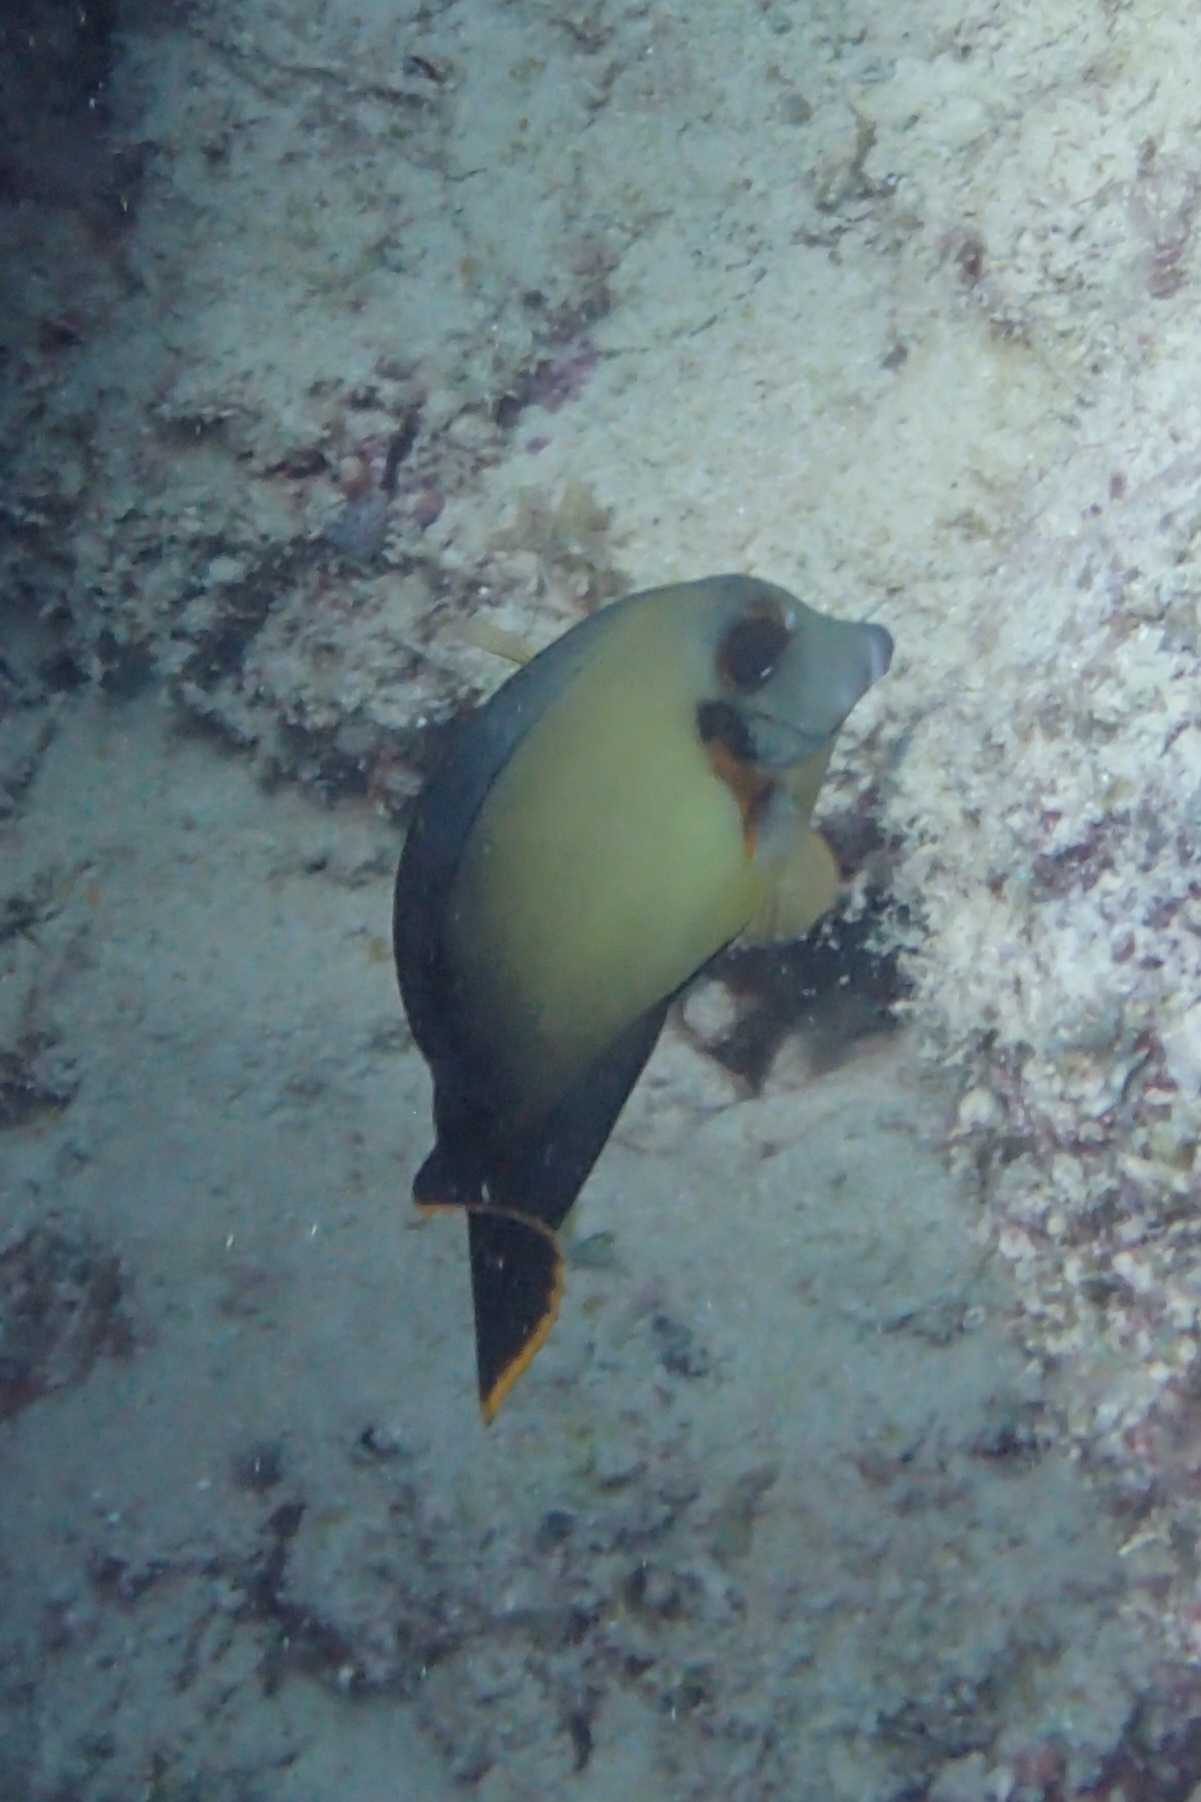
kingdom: Animalia
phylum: Chordata
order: Perciformes
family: Acanthuridae
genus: Acanthurus
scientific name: Acanthurus pyroferus
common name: Chocolate surgeonfish
